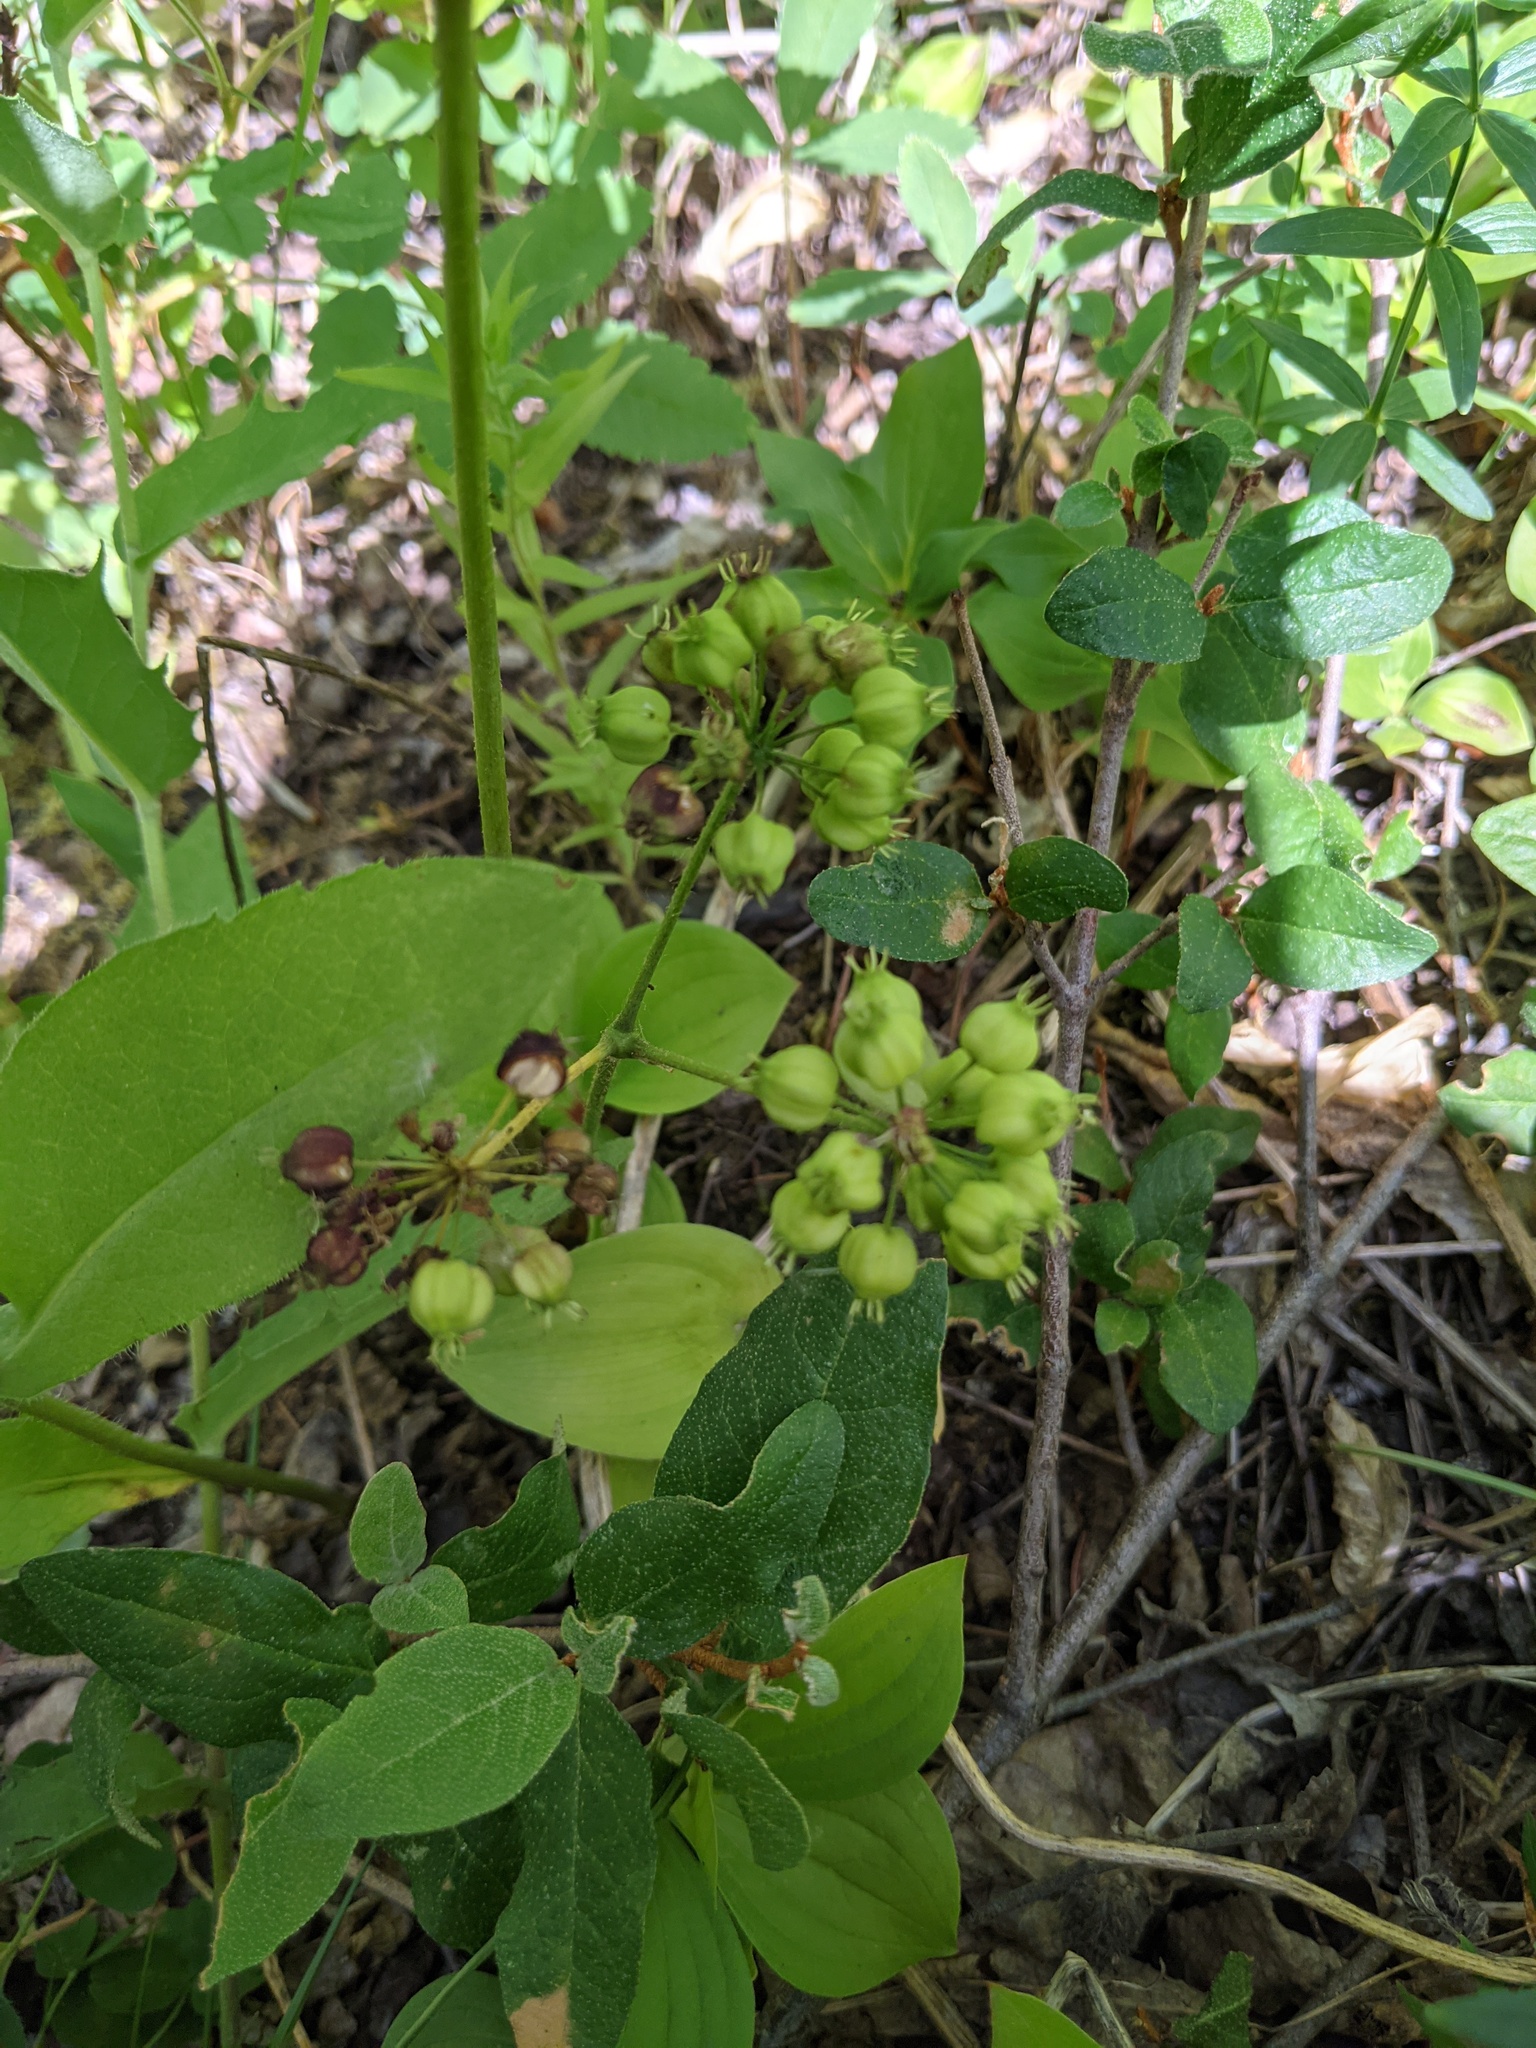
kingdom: Plantae
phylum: Tracheophyta
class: Magnoliopsida
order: Apiales
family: Araliaceae
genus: Aralia
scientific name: Aralia nudicaulis
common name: Wild sarsaparilla
